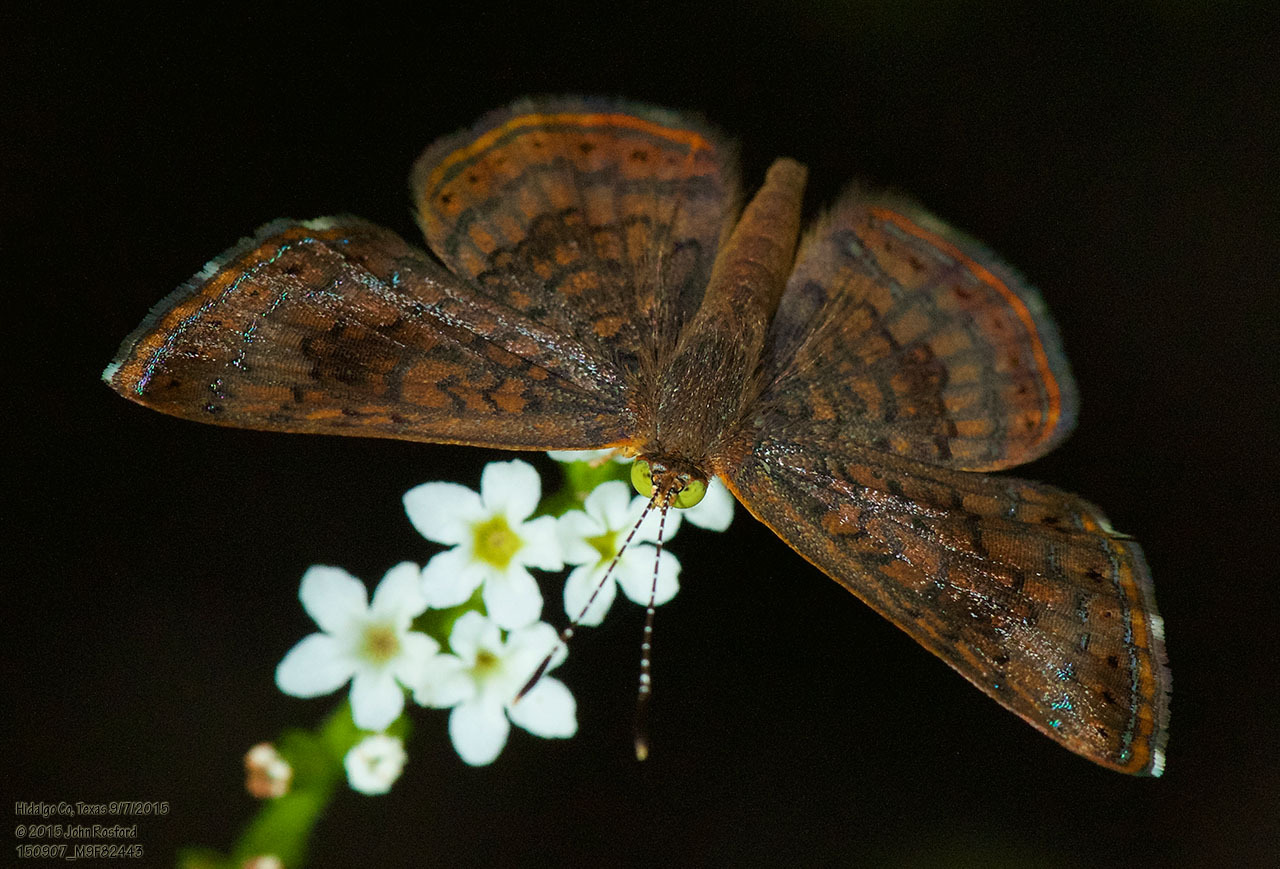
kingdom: Animalia
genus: Calephelis
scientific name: Calephelis nemesis
